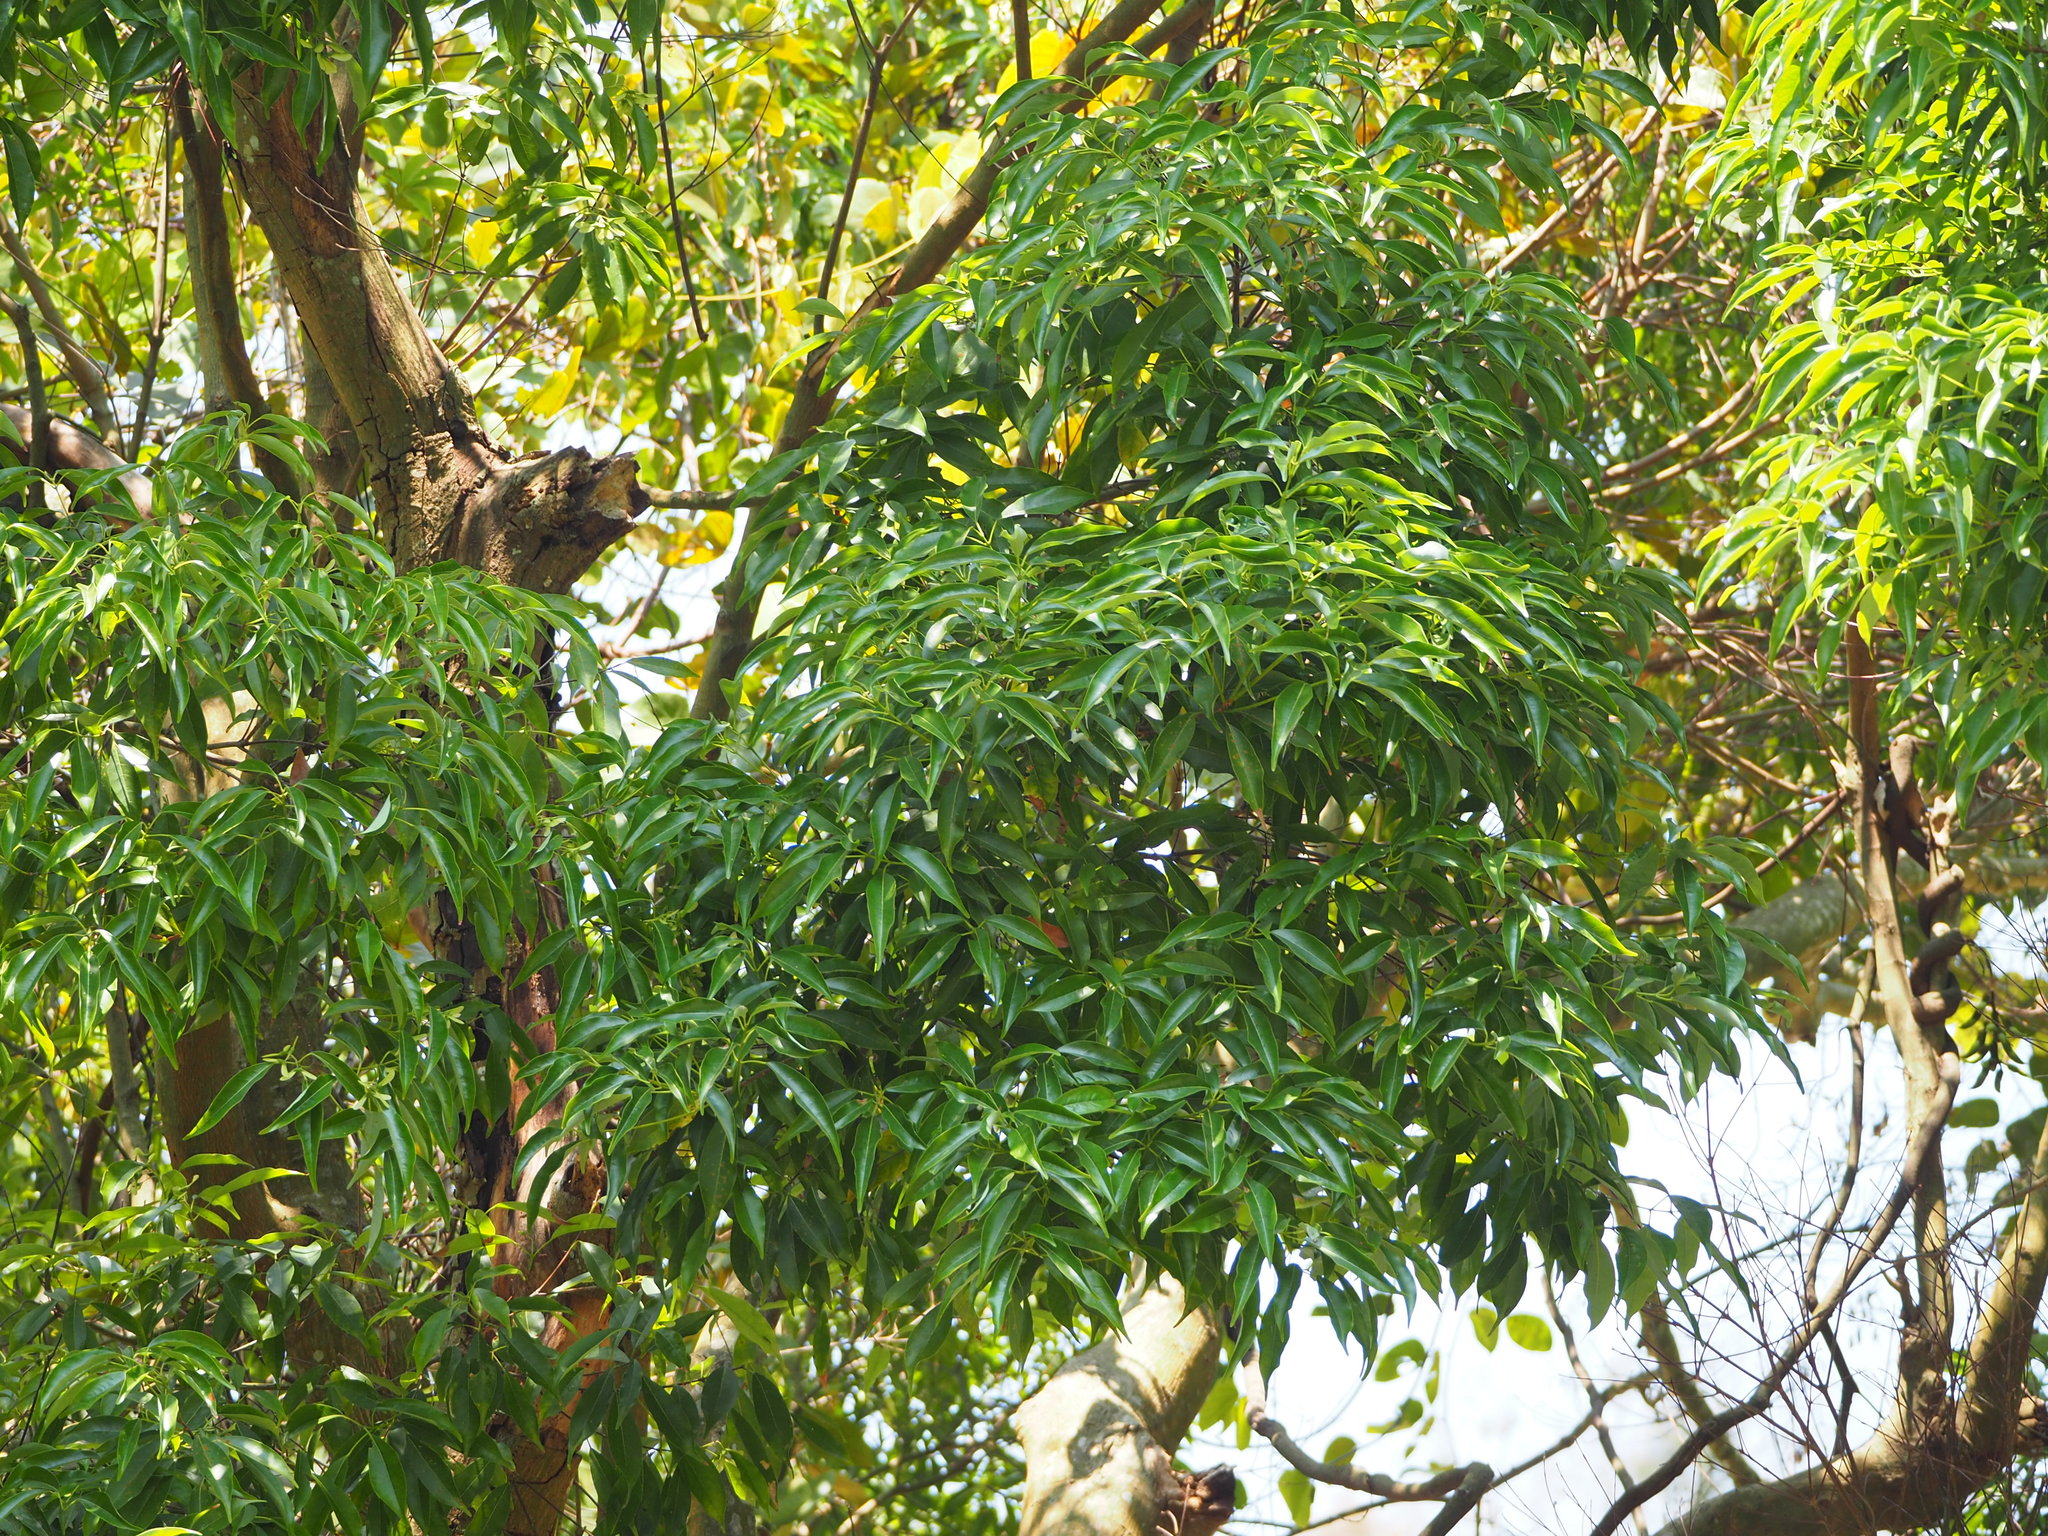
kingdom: Plantae
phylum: Tracheophyta
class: Magnoliopsida
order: Sapindales
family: Sapindaceae
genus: Acer
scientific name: Acer oblongum
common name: Himalayan maple
